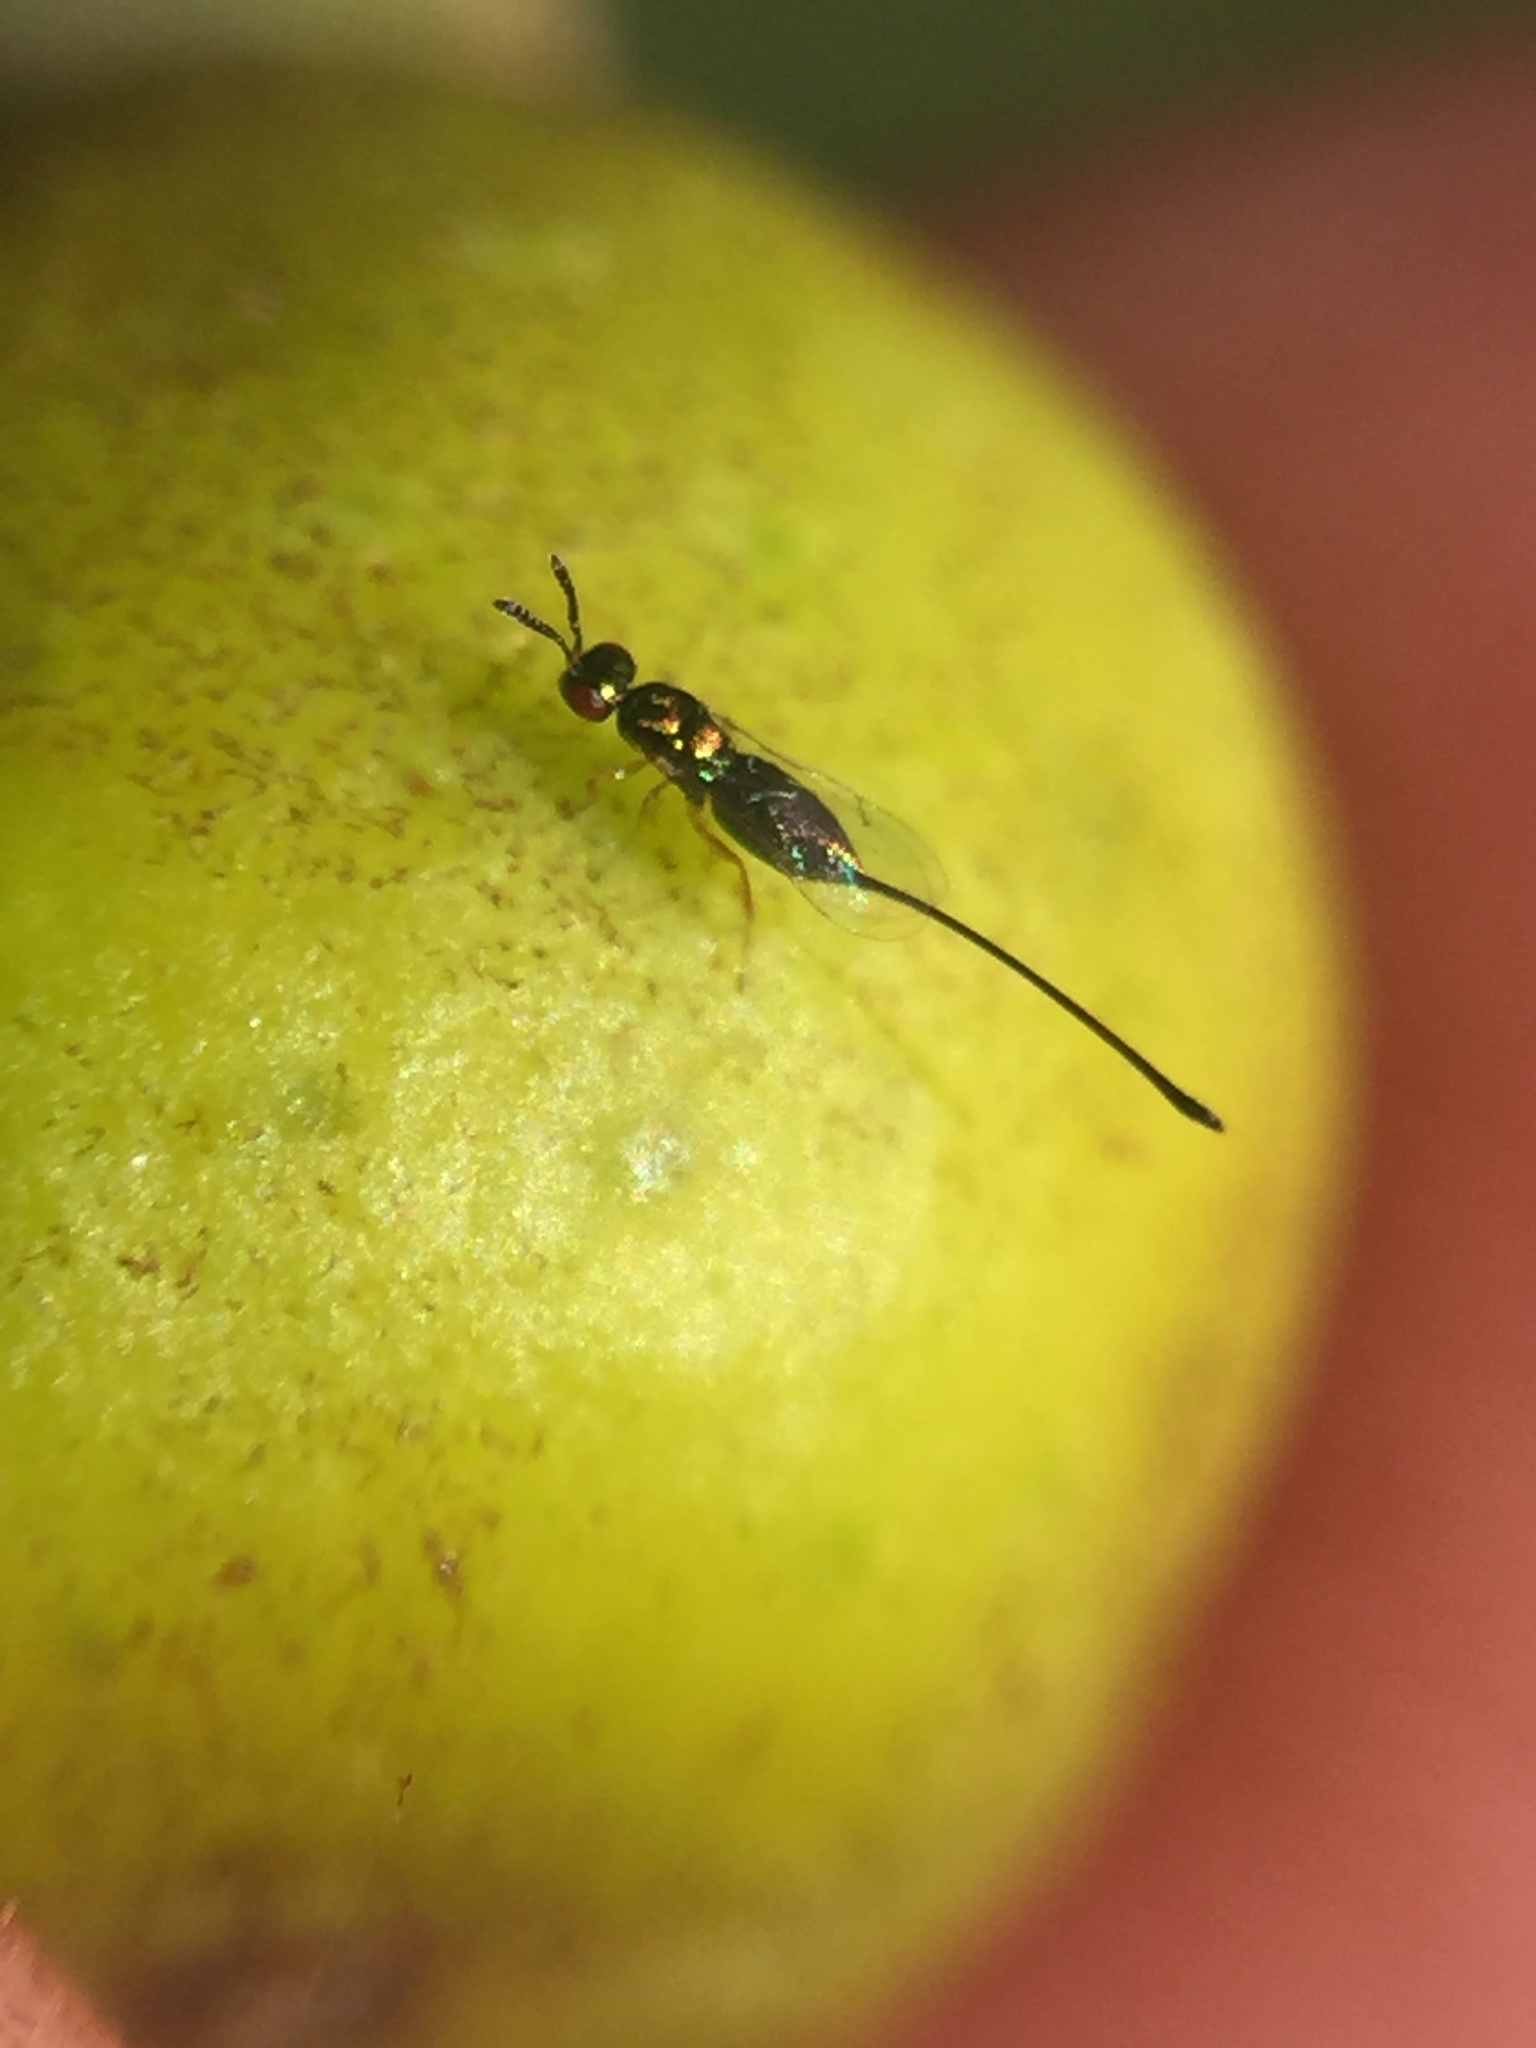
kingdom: Animalia
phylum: Arthropoda
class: Insecta
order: Hymenoptera
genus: Sycoscapter
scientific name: Sycoscapter
